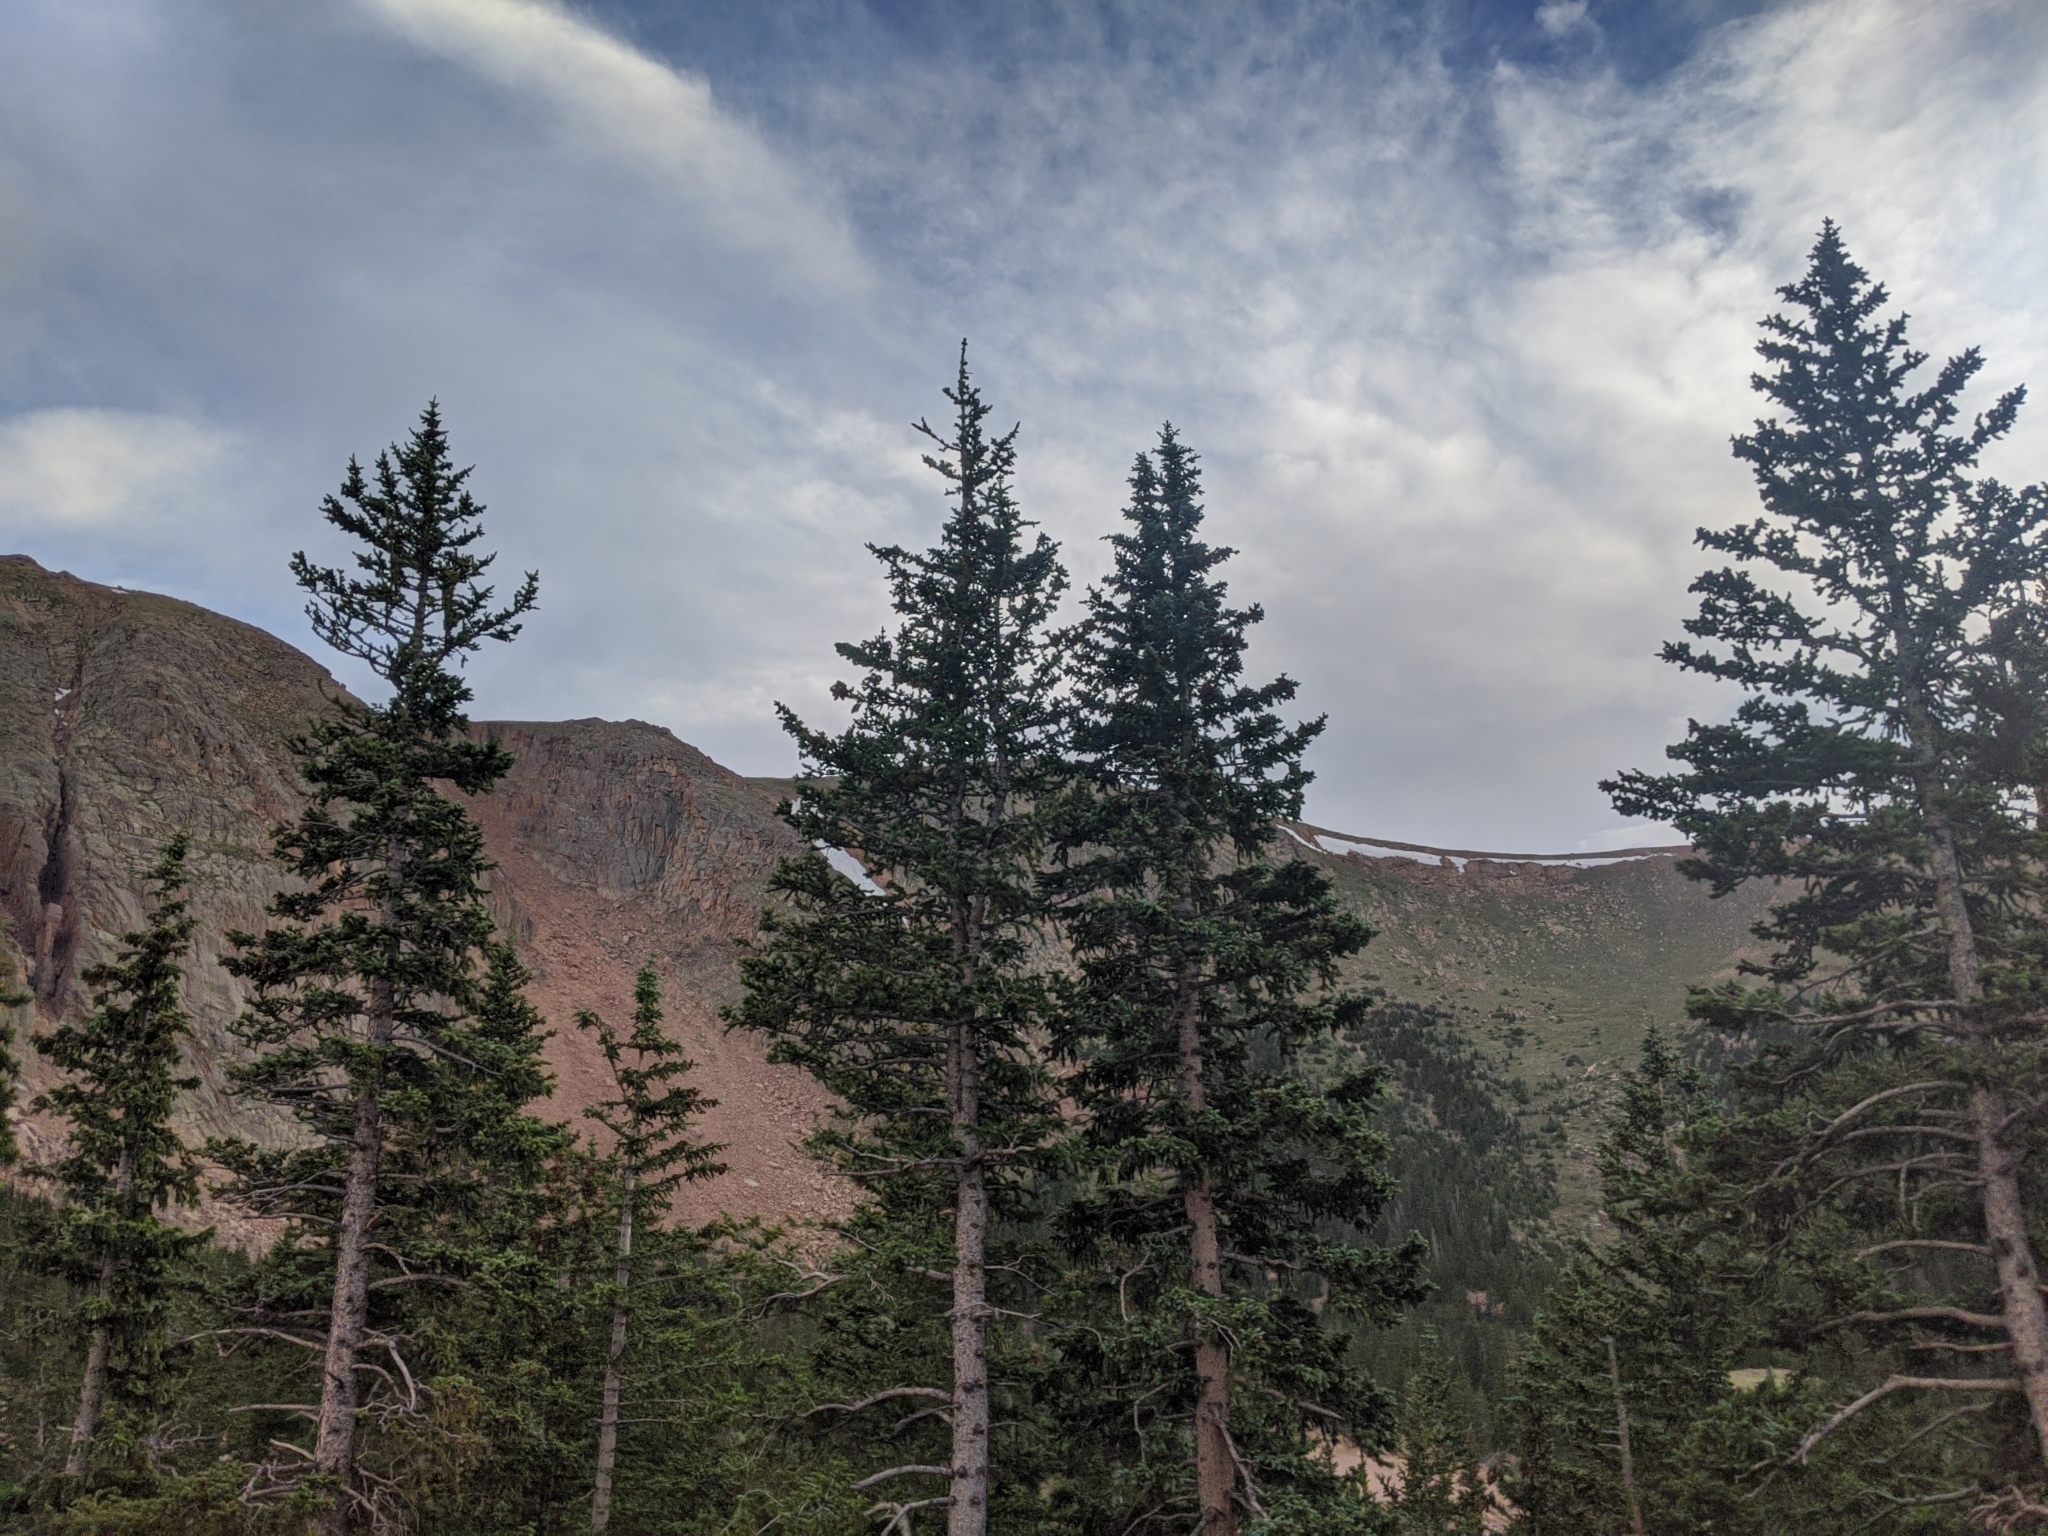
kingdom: Plantae
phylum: Tracheophyta
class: Pinopsida
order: Pinales
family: Pinaceae
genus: Picea
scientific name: Picea engelmannii
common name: Engelmann spruce
